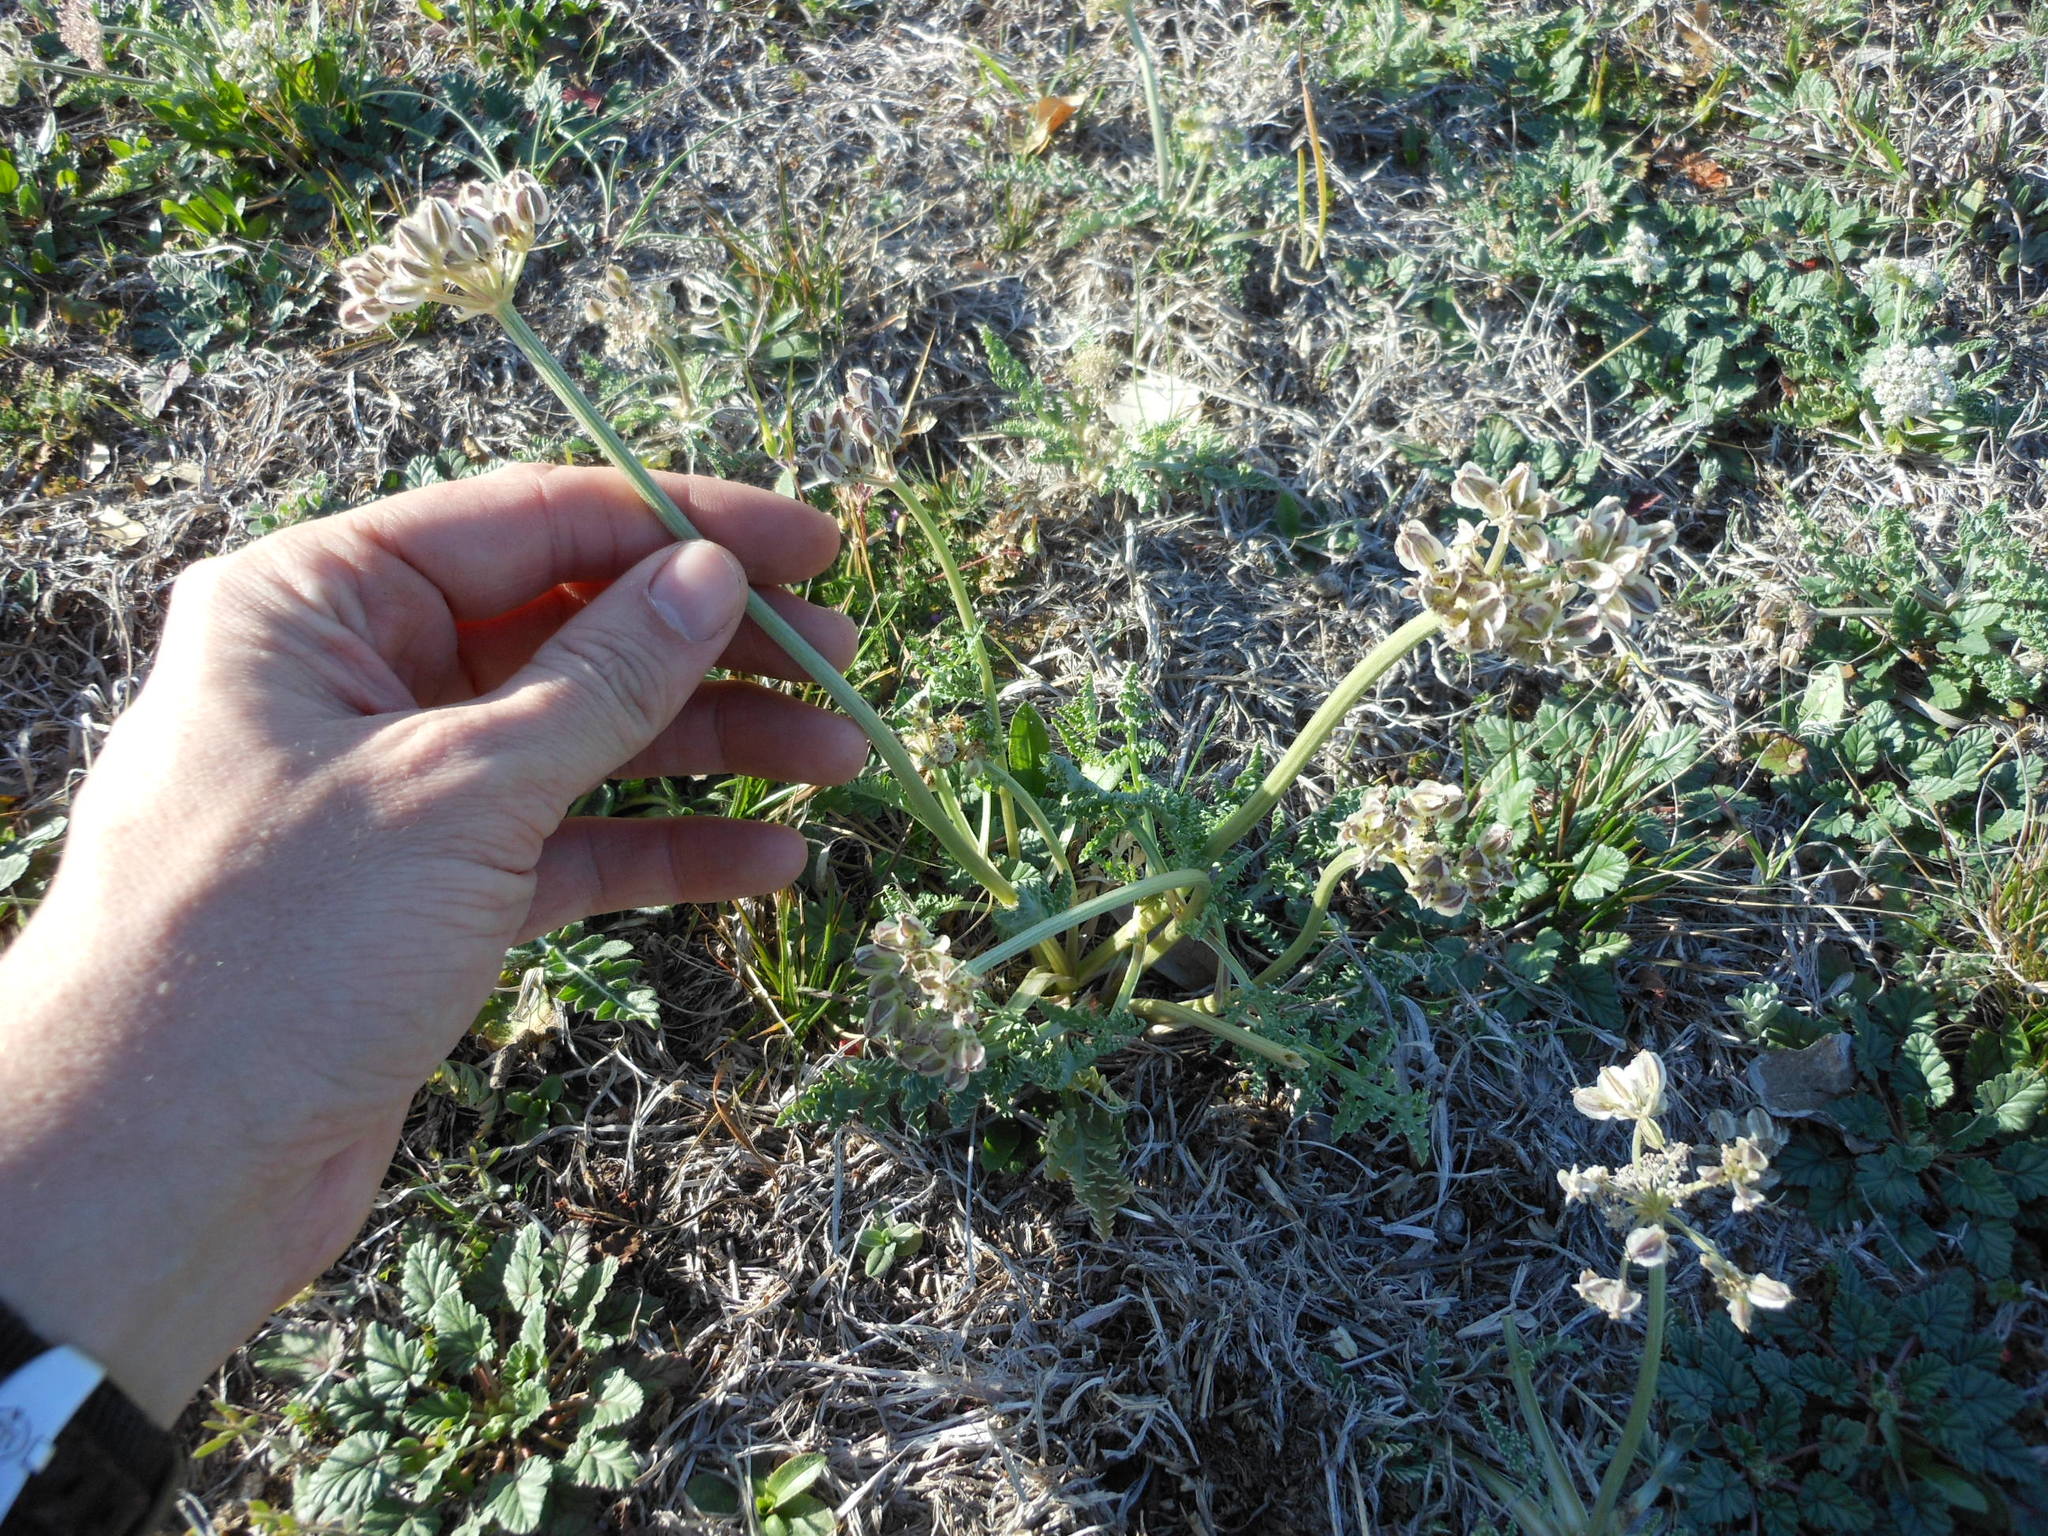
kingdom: Plantae
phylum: Tracheophyta
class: Magnoliopsida
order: Apiales
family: Apiaceae
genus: Vesper
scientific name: Vesper macrorhizus
